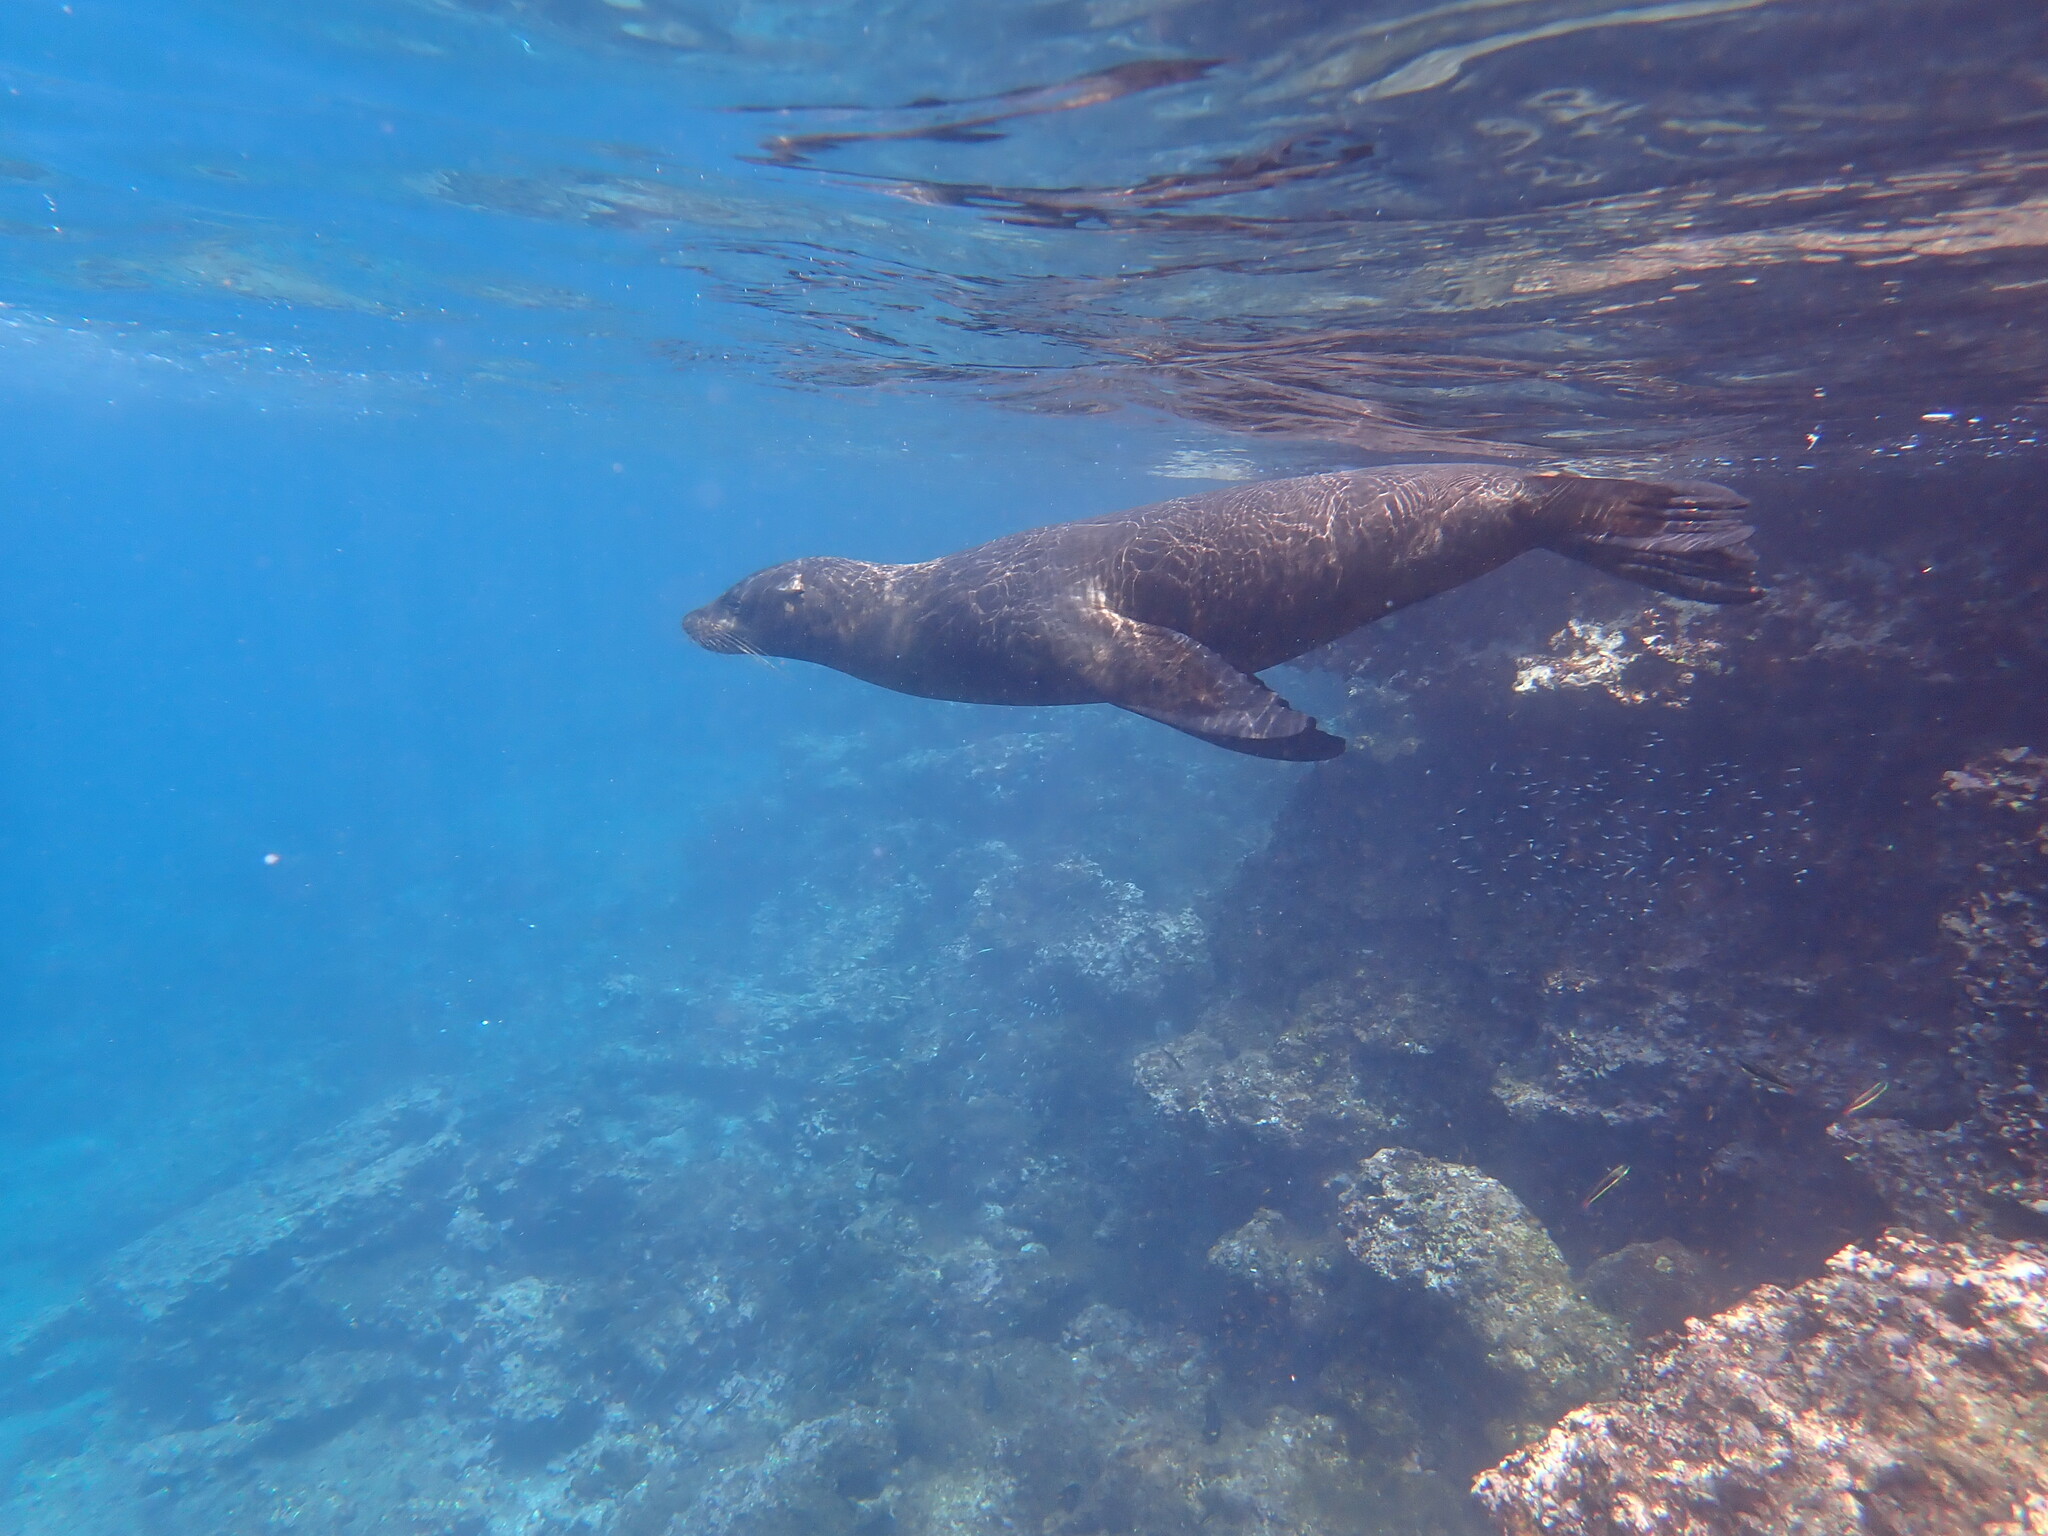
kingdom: Animalia
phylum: Chordata
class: Mammalia
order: Carnivora
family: Otariidae
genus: Zalophus
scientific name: Zalophus wollebaeki
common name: Galapagos sea lion
